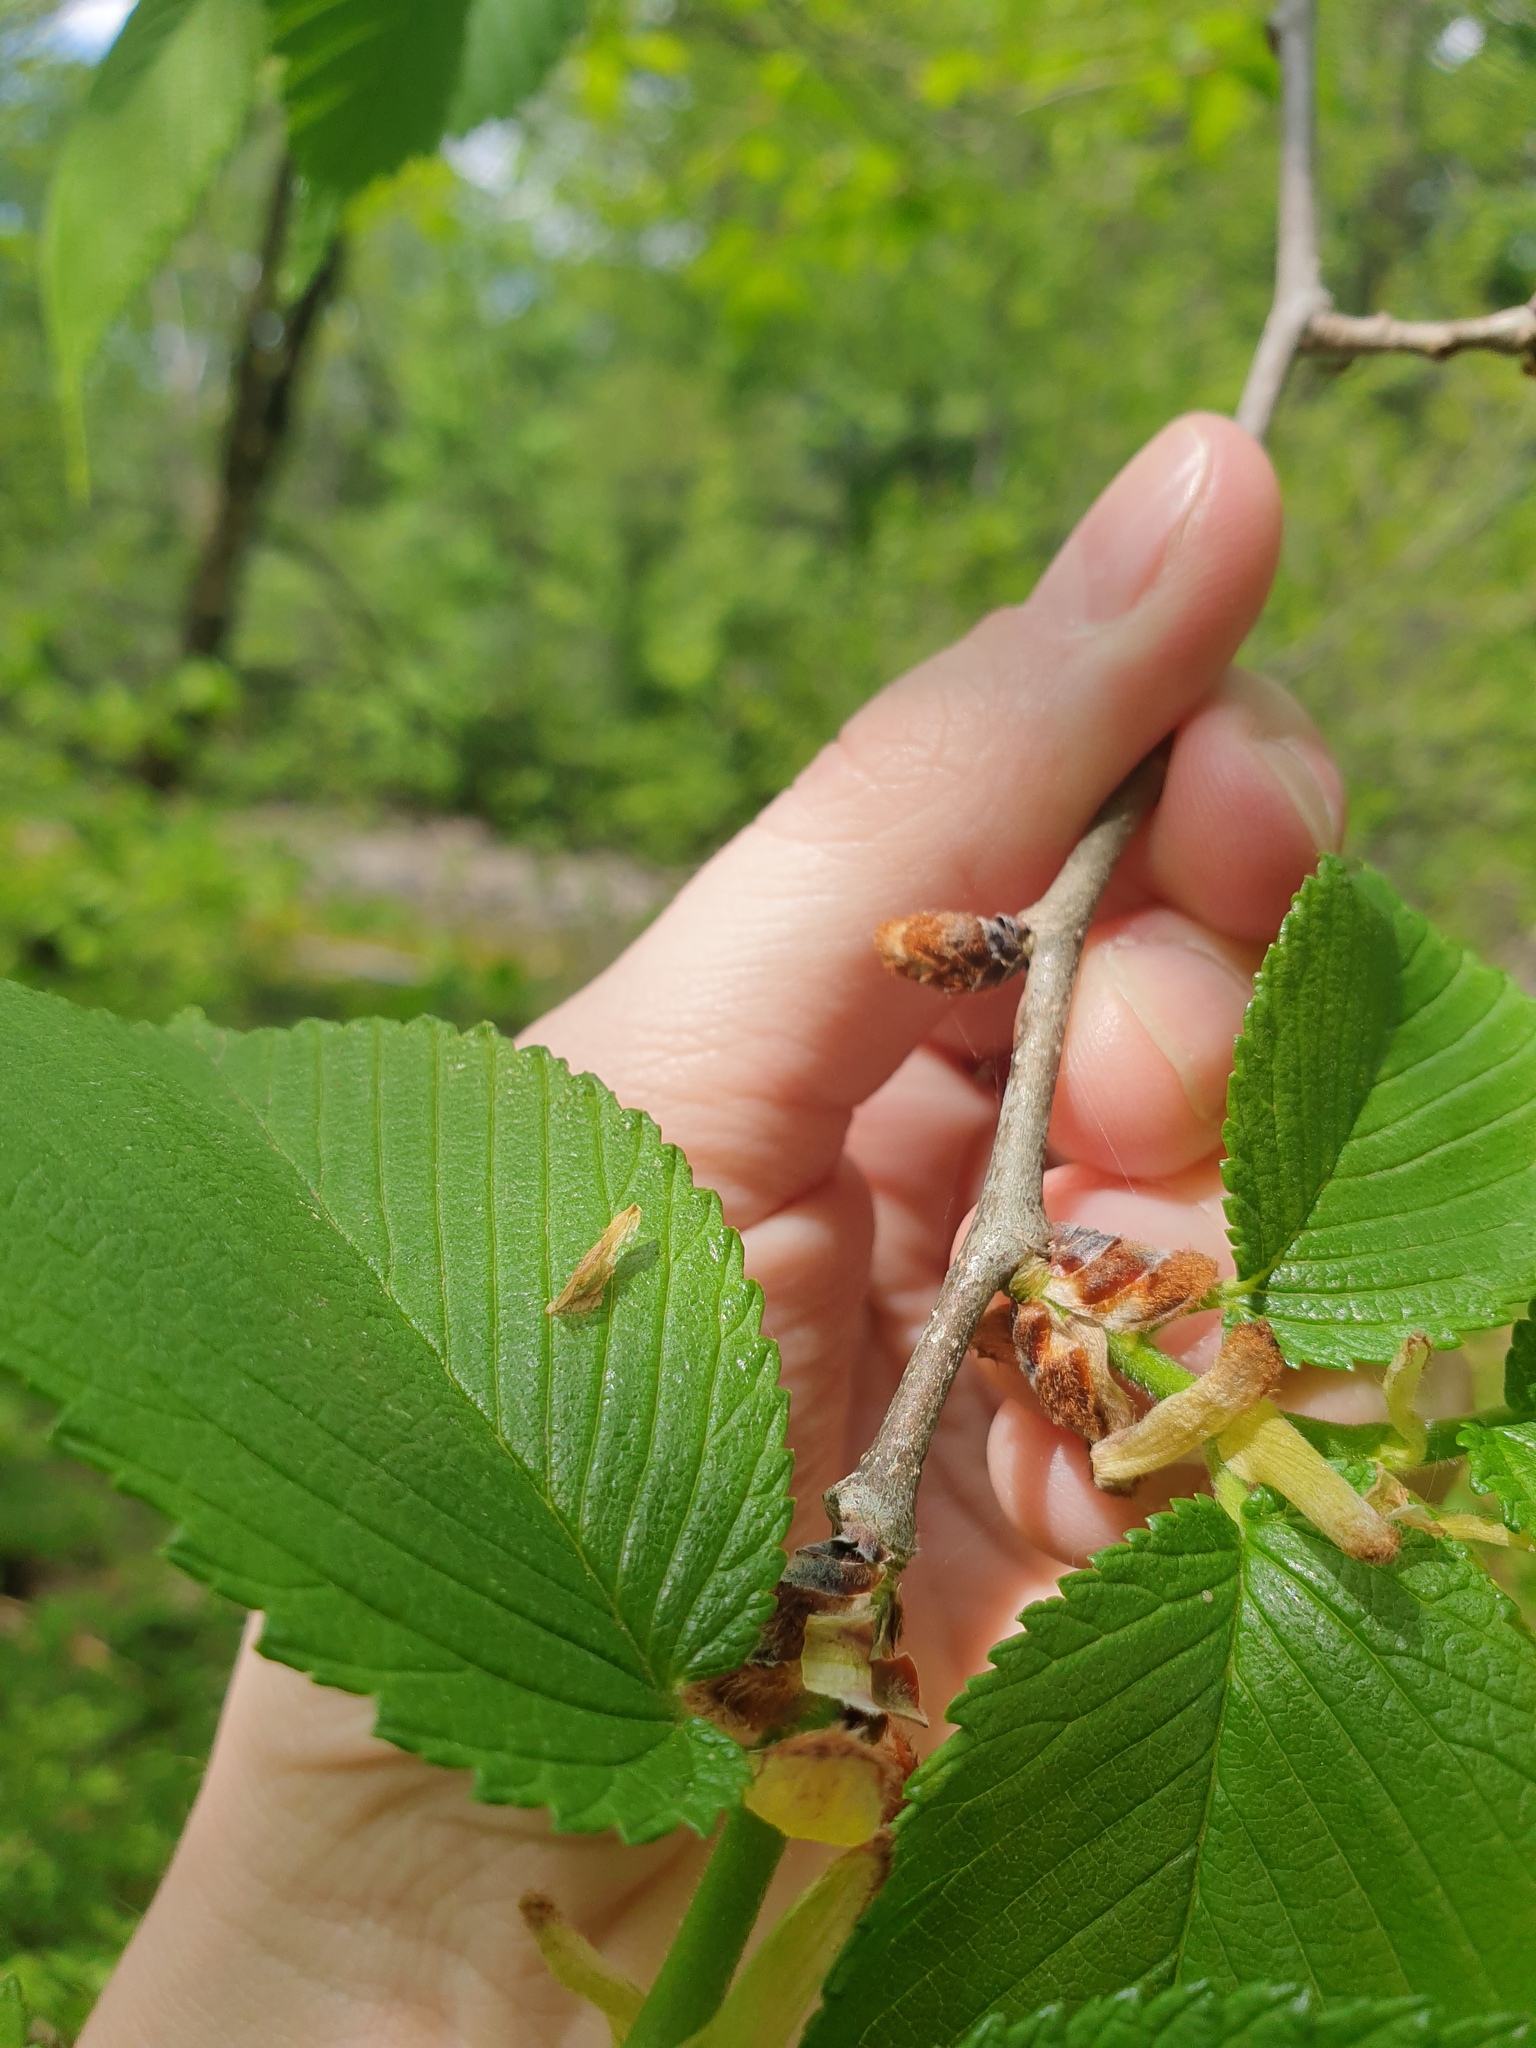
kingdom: Plantae
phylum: Tracheophyta
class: Magnoliopsida
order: Rosales
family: Ulmaceae
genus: Ulmus
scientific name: Ulmus rubra
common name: Slippery elm
